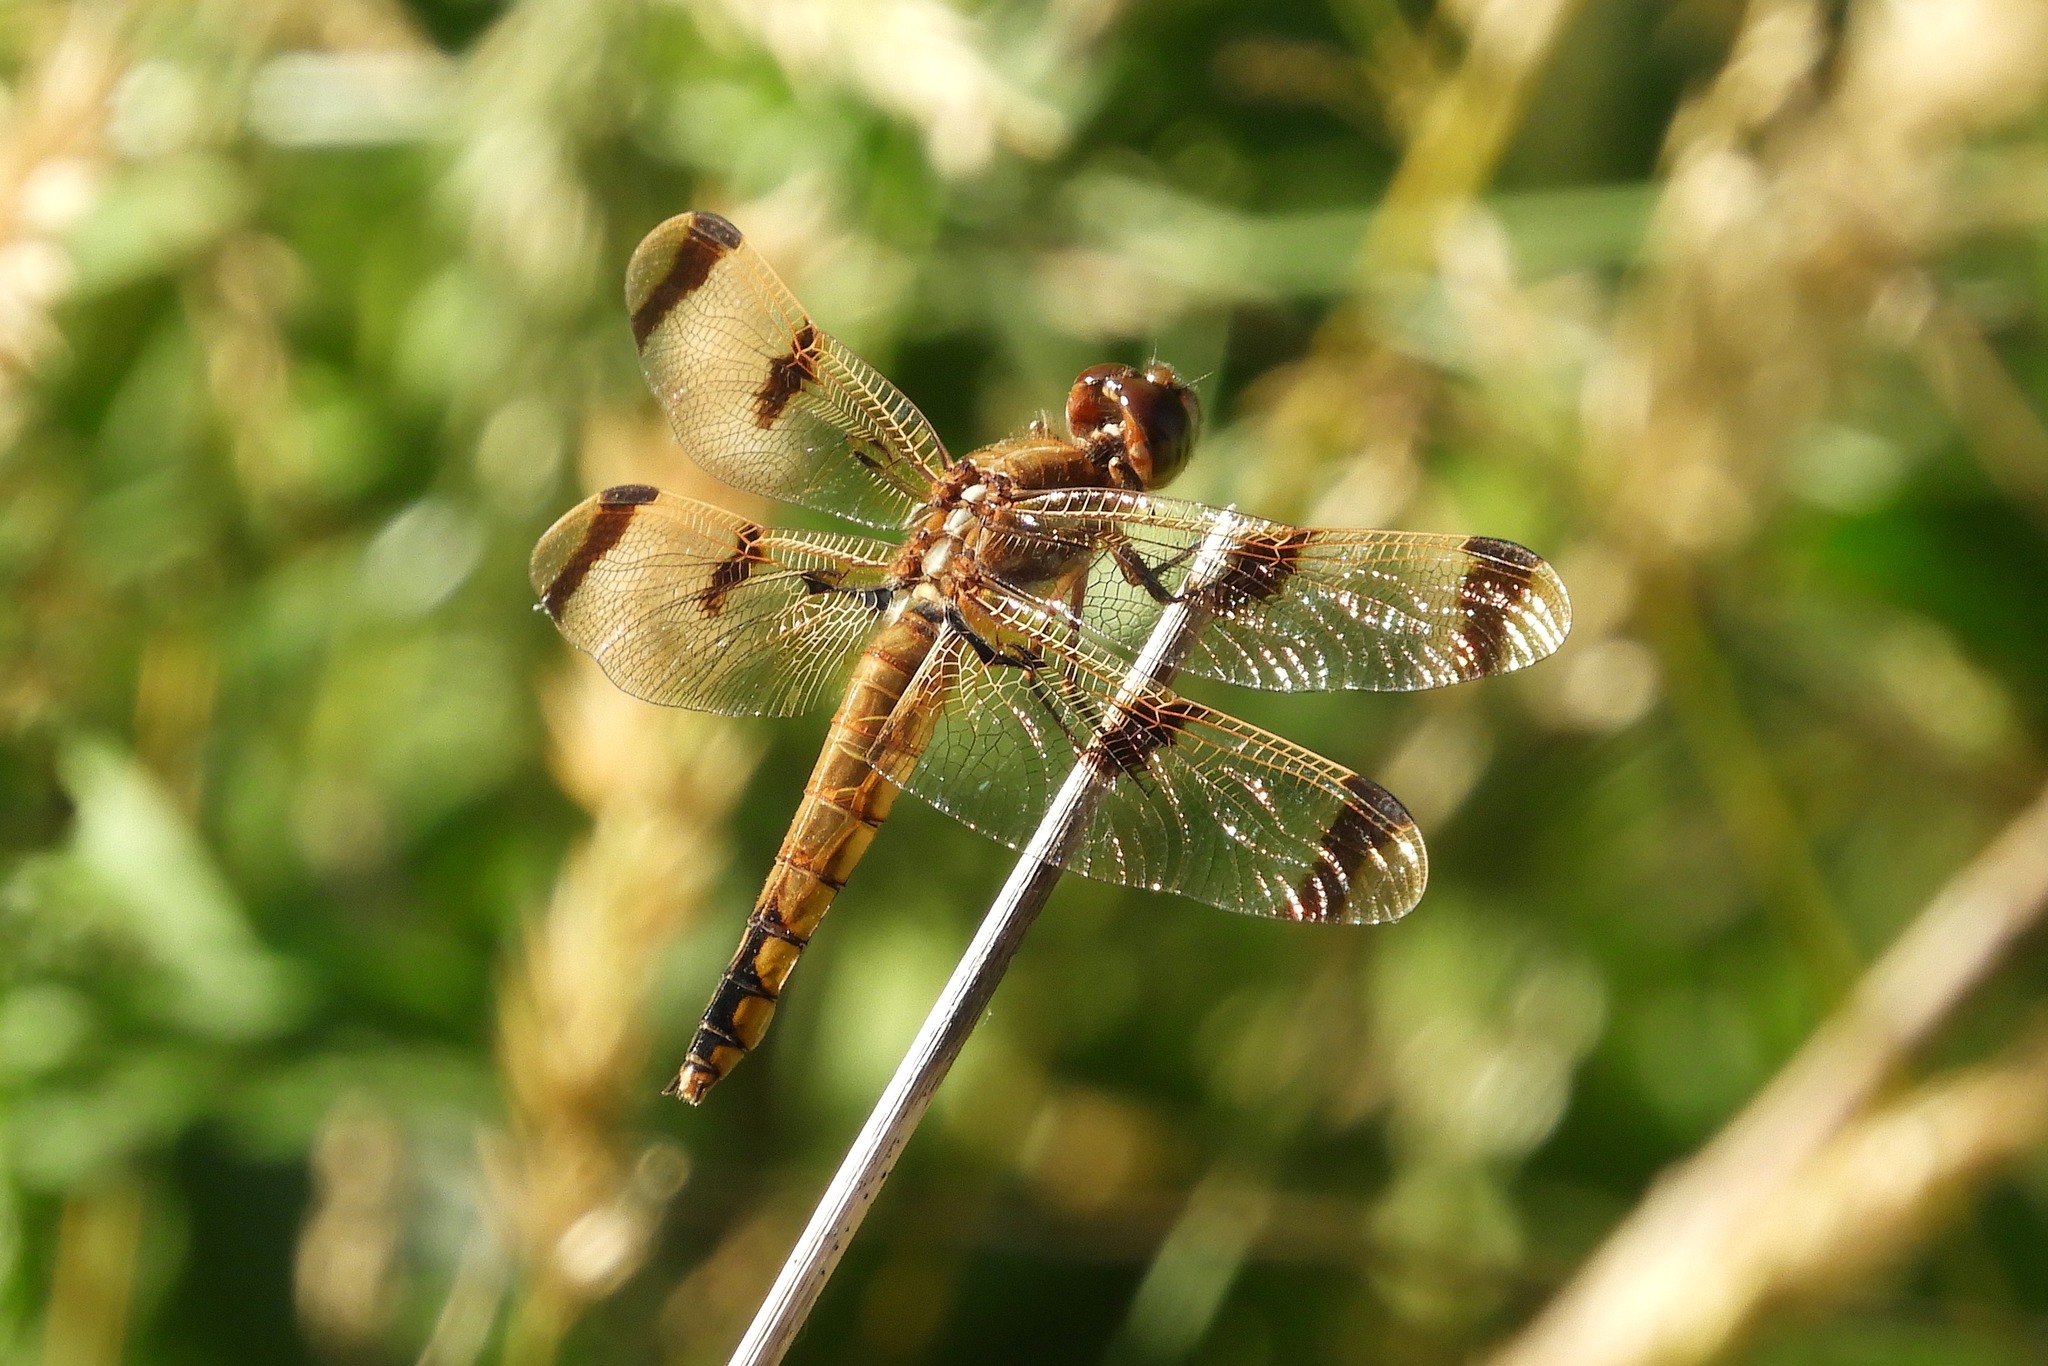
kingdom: Animalia
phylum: Arthropoda
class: Insecta
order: Odonata
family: Libellulidae
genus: Libellula
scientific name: Libellula semifasciata
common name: Painted skimmer
